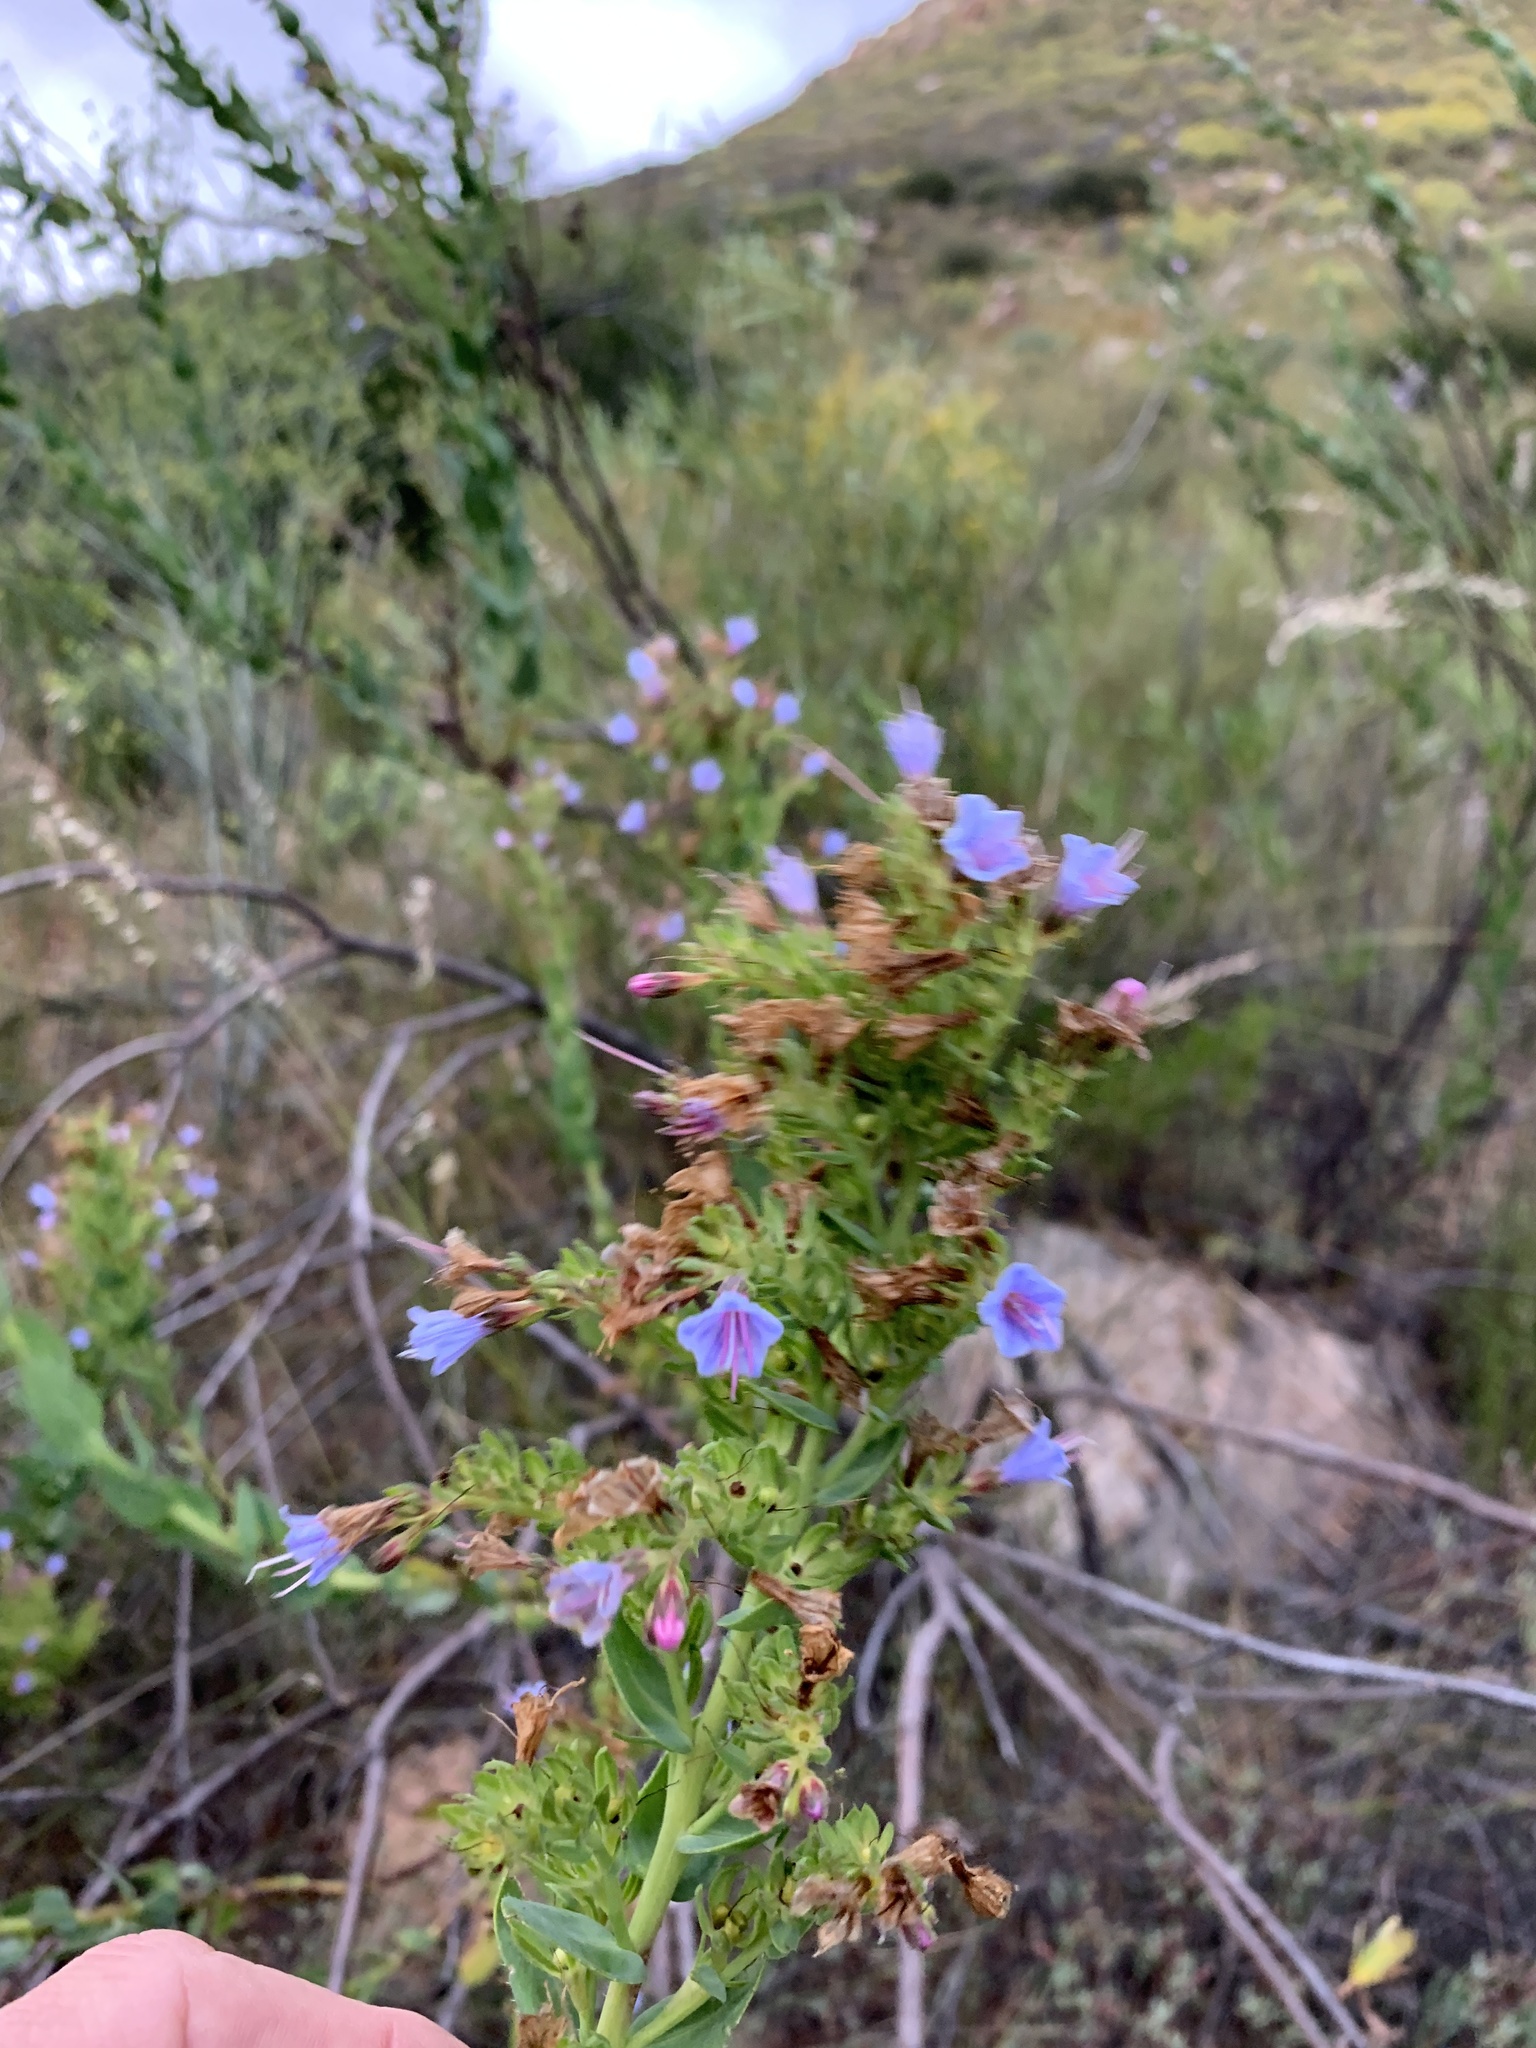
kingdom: Plantae
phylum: Tracheophyta
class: Magnoliopsida
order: Boraginales
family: Boraginaceae
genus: Lobostemon
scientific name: Lobostemon laevigatus
